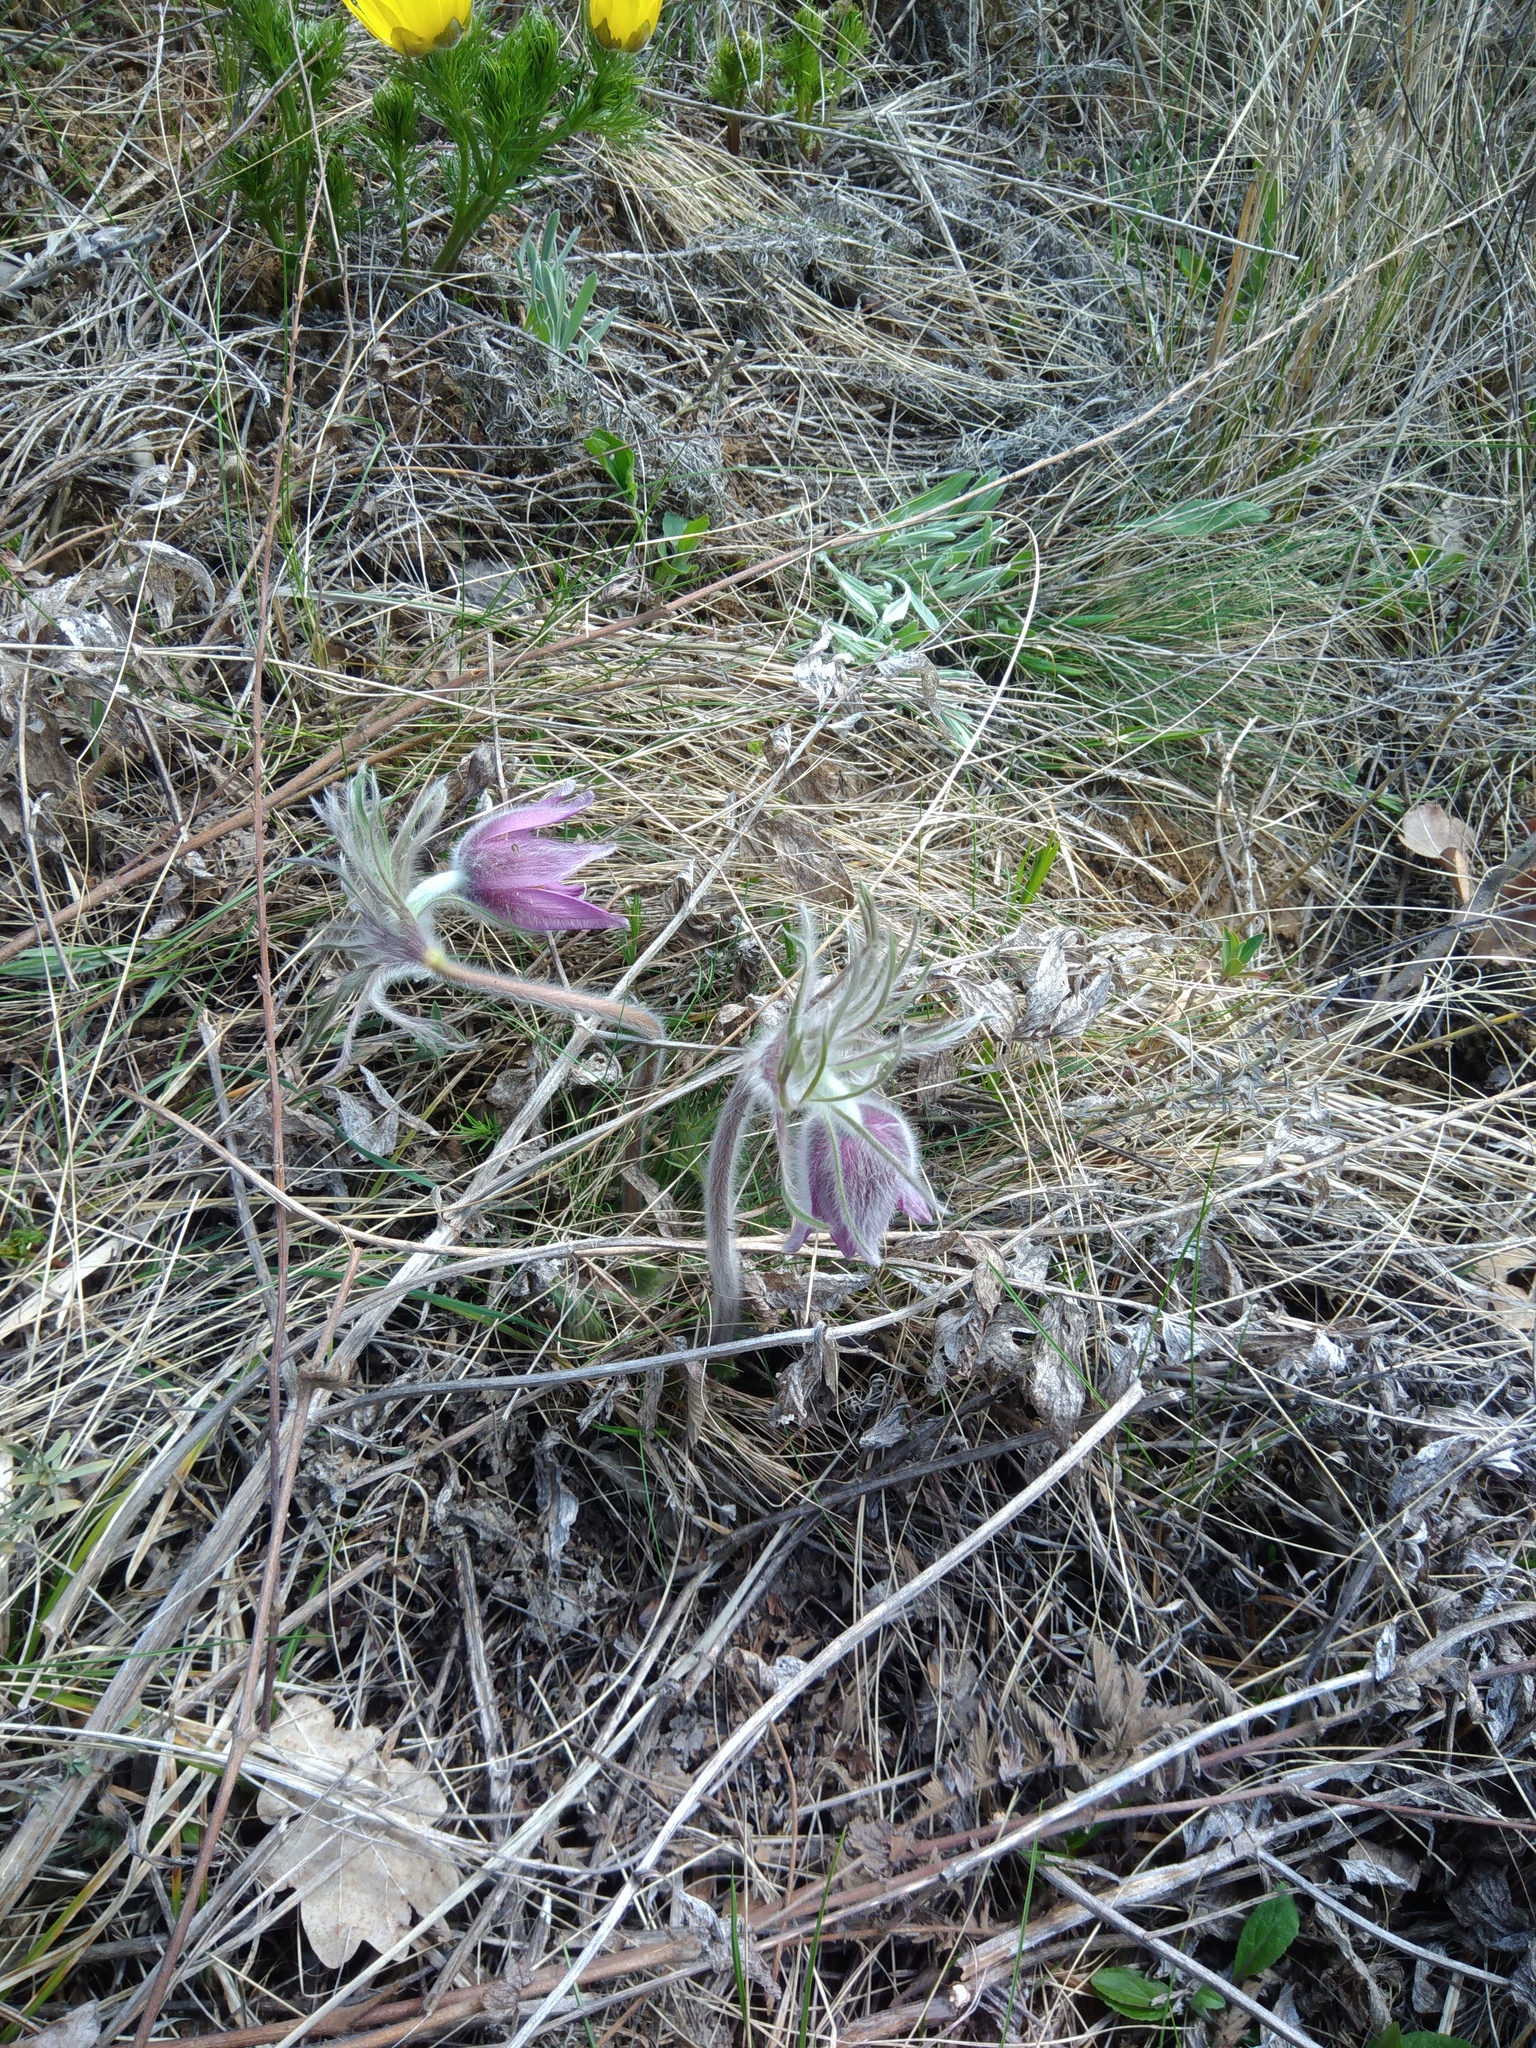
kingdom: Plantae
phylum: Tracheophyta
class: Magnoliopsida
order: Ranunculales
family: Ranunculaceae
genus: Pulsatilla
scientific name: Pulsatilla pratensis
